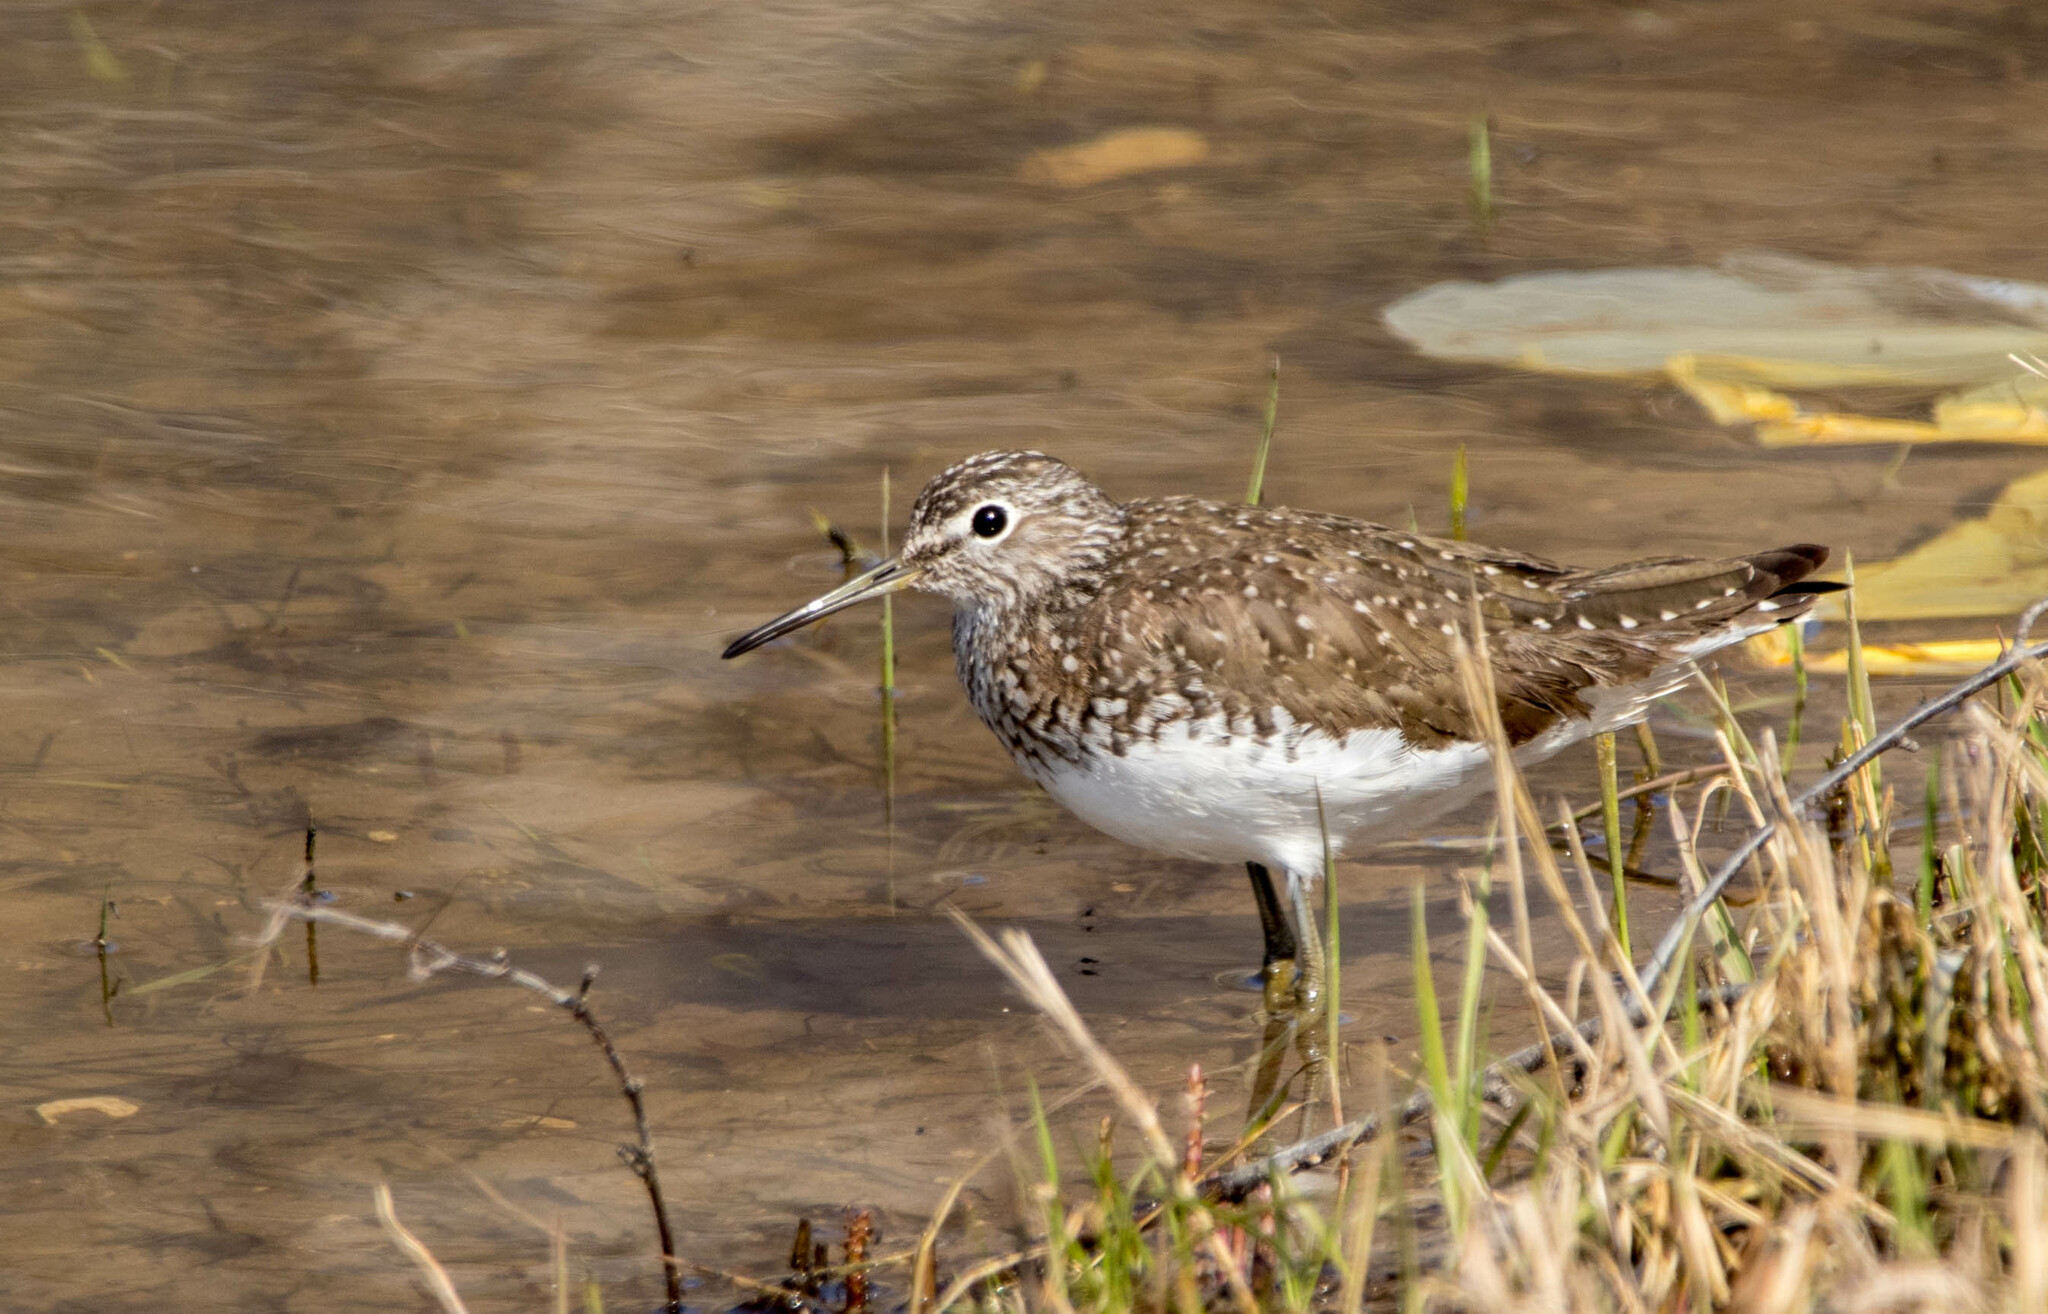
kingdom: Animalia
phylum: Chordata
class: Aves
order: Charadriiformes
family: Scolopacidae
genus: Tringa
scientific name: Tringa ochropus
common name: Green sandpiper
